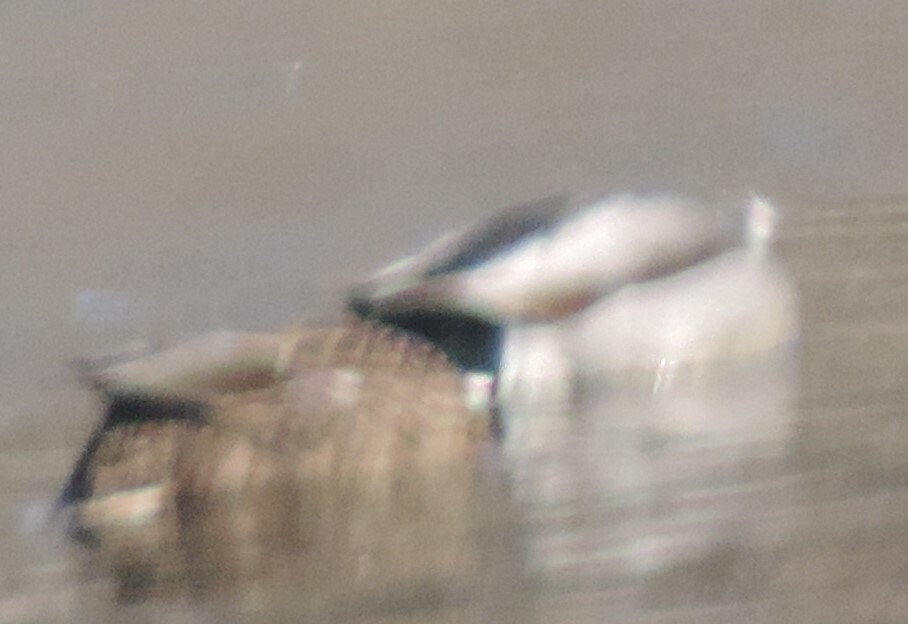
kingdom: Animalia
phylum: Chordata
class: Aves
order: Anseriformes
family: Anatidae
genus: Anas
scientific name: Anas platyrhynchos
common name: Mallard
